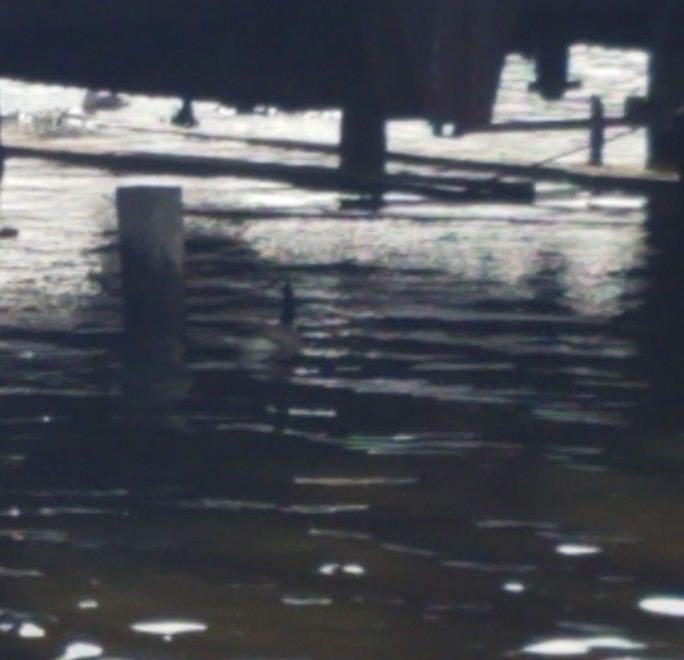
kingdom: Animalia
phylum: Chordata
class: Aves
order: Anseriformes
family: Anatidae
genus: Branta
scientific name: Branta canadensis
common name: Canada goose
